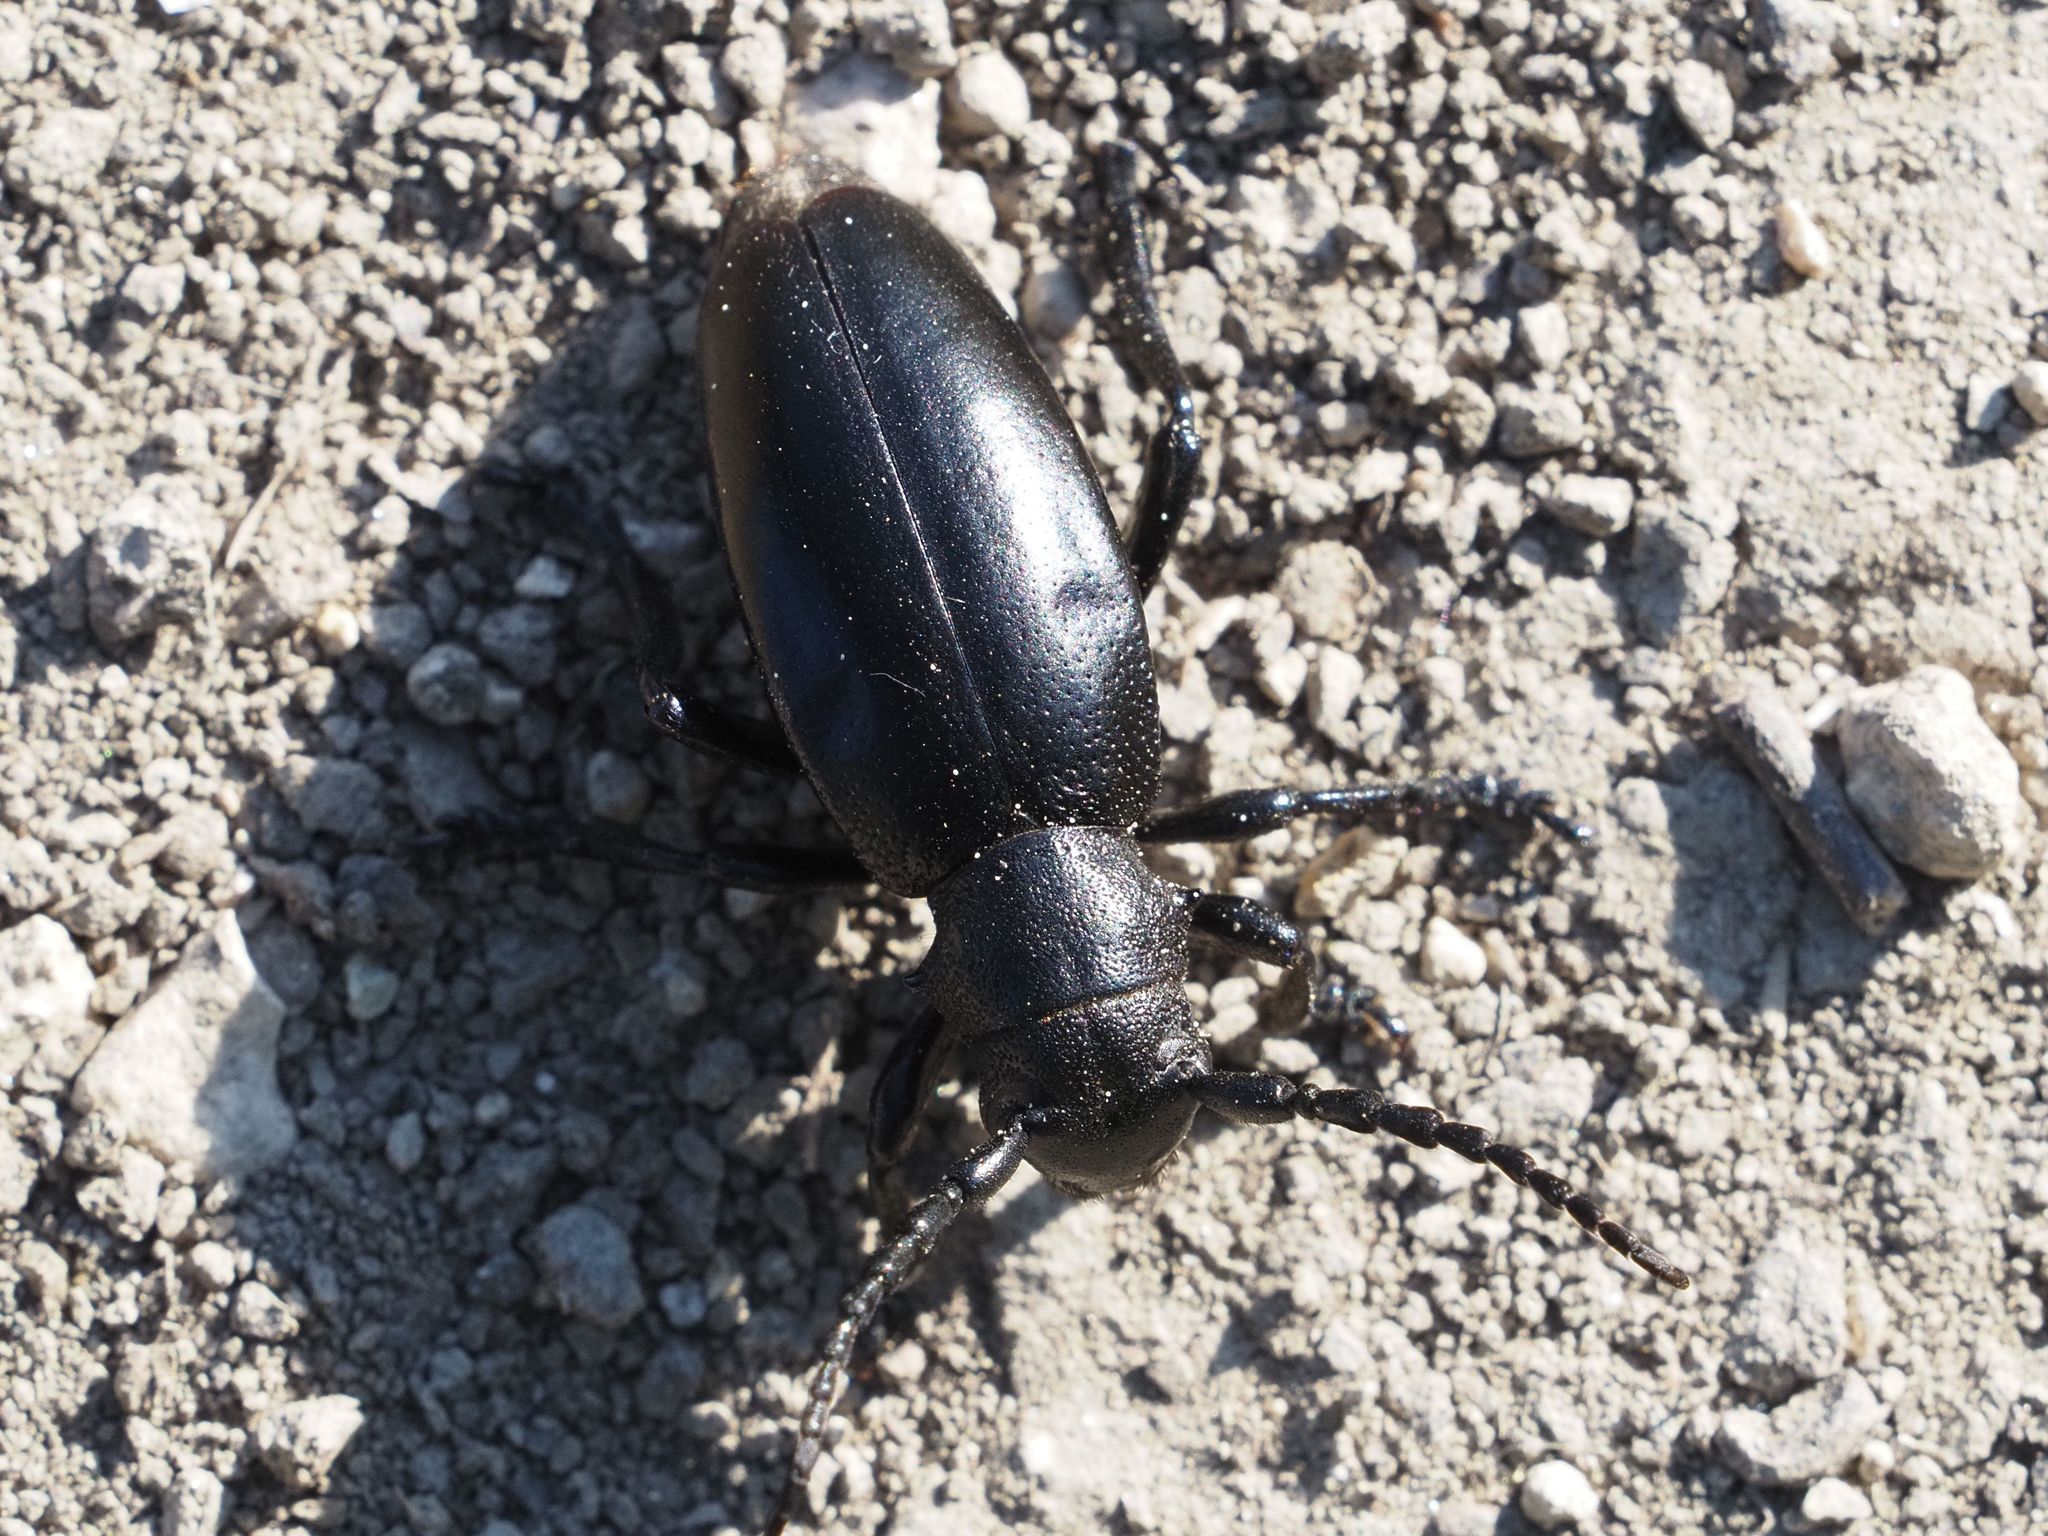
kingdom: Animalia
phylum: Arthropoda
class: Insecta
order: Coleoptera
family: Cerambycidae
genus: Dorcadion
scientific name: Dorcadion aethiops
